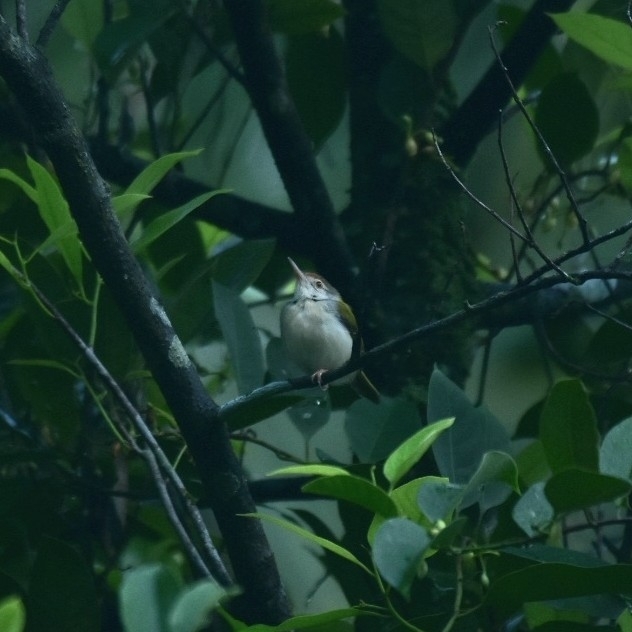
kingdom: Animalia
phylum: Chordata
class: Aves
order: Passeriformes
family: Cisticolidae
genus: Orthotomus
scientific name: Orthotomus sutorius
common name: Common tailorbird
